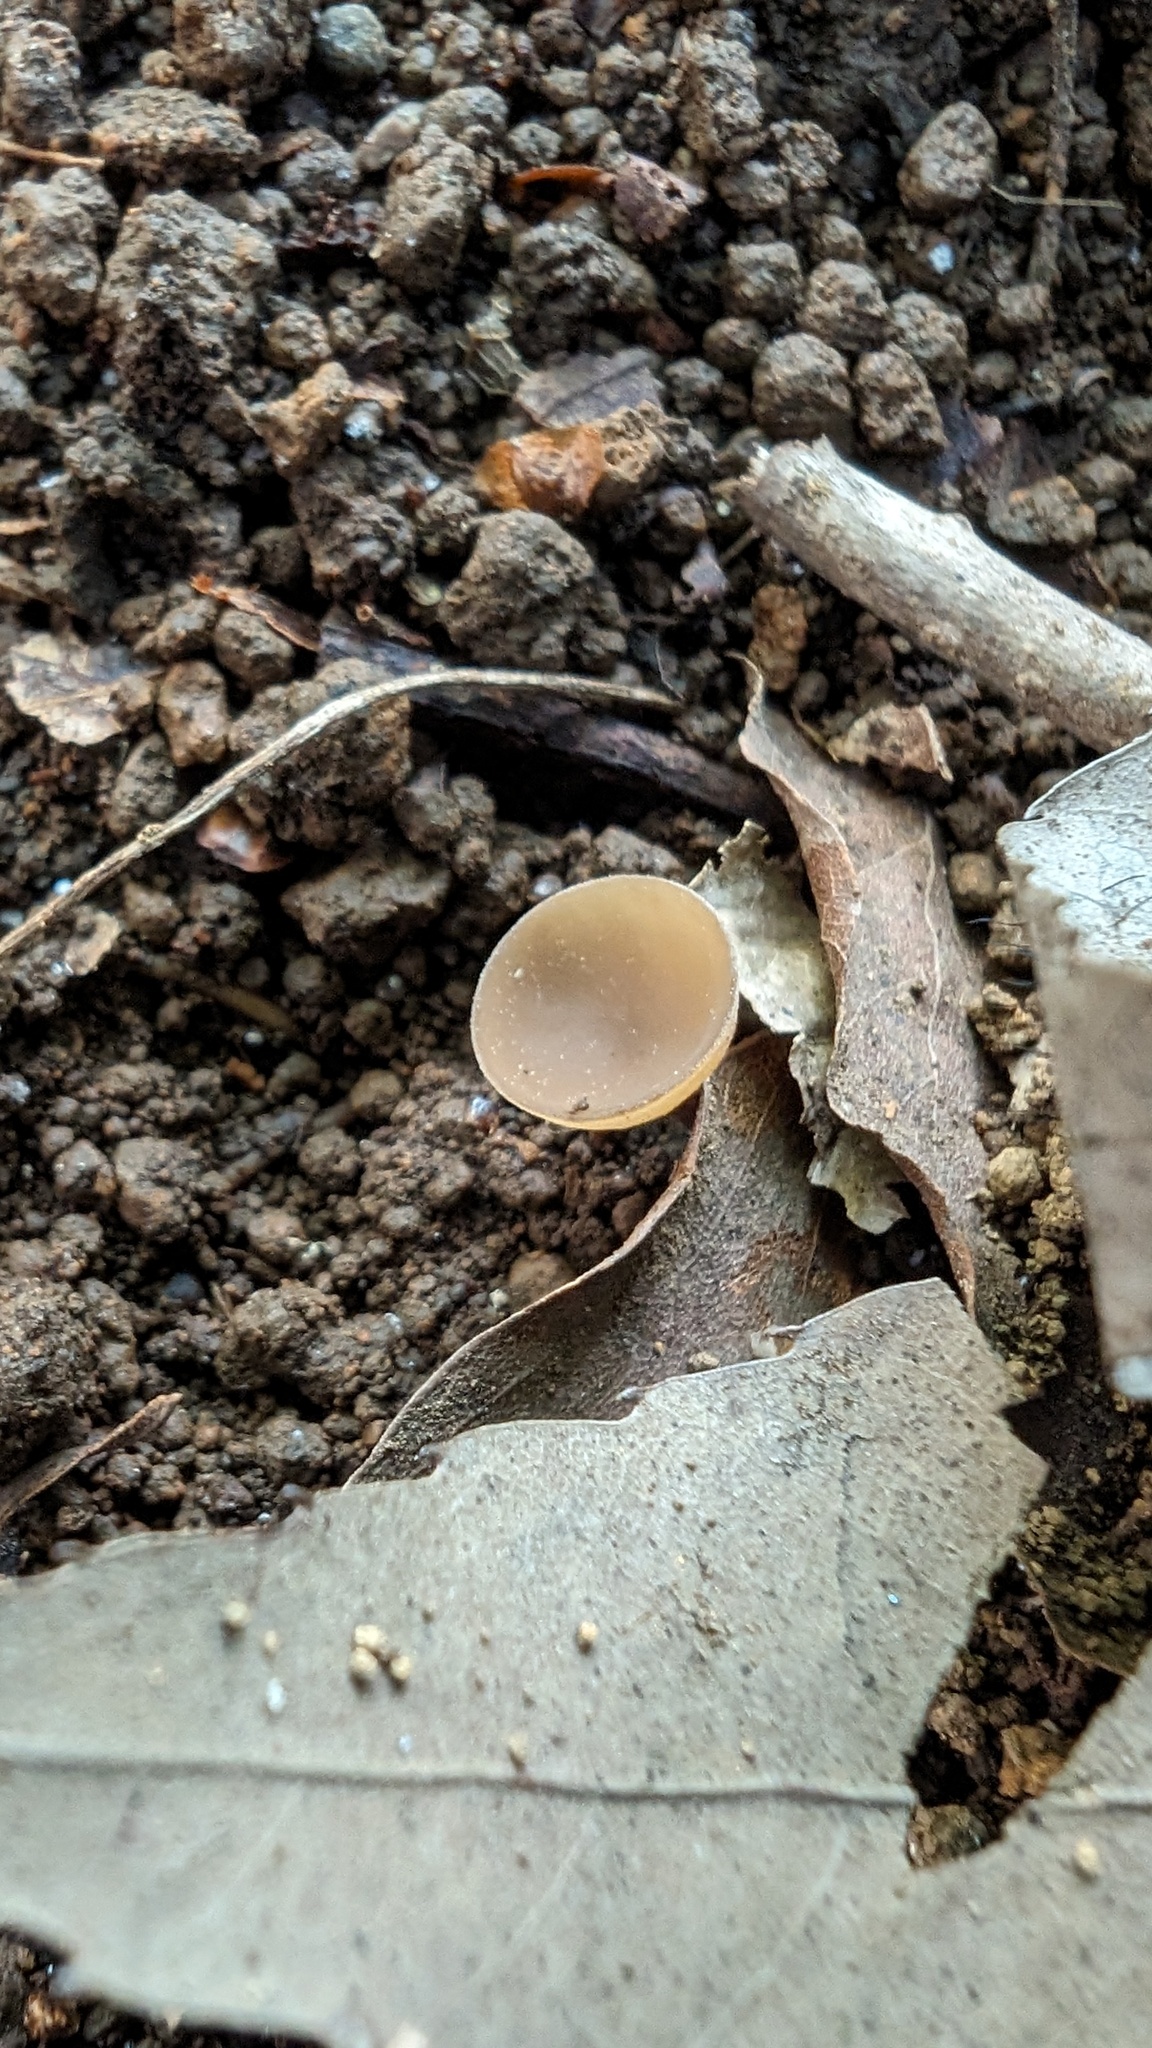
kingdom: Fungi
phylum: Ascomycota
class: Leotiomycetes
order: Helotiales
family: Sclerotiniaceae
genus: Ciborinia
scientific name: Ciborinia camelliae
